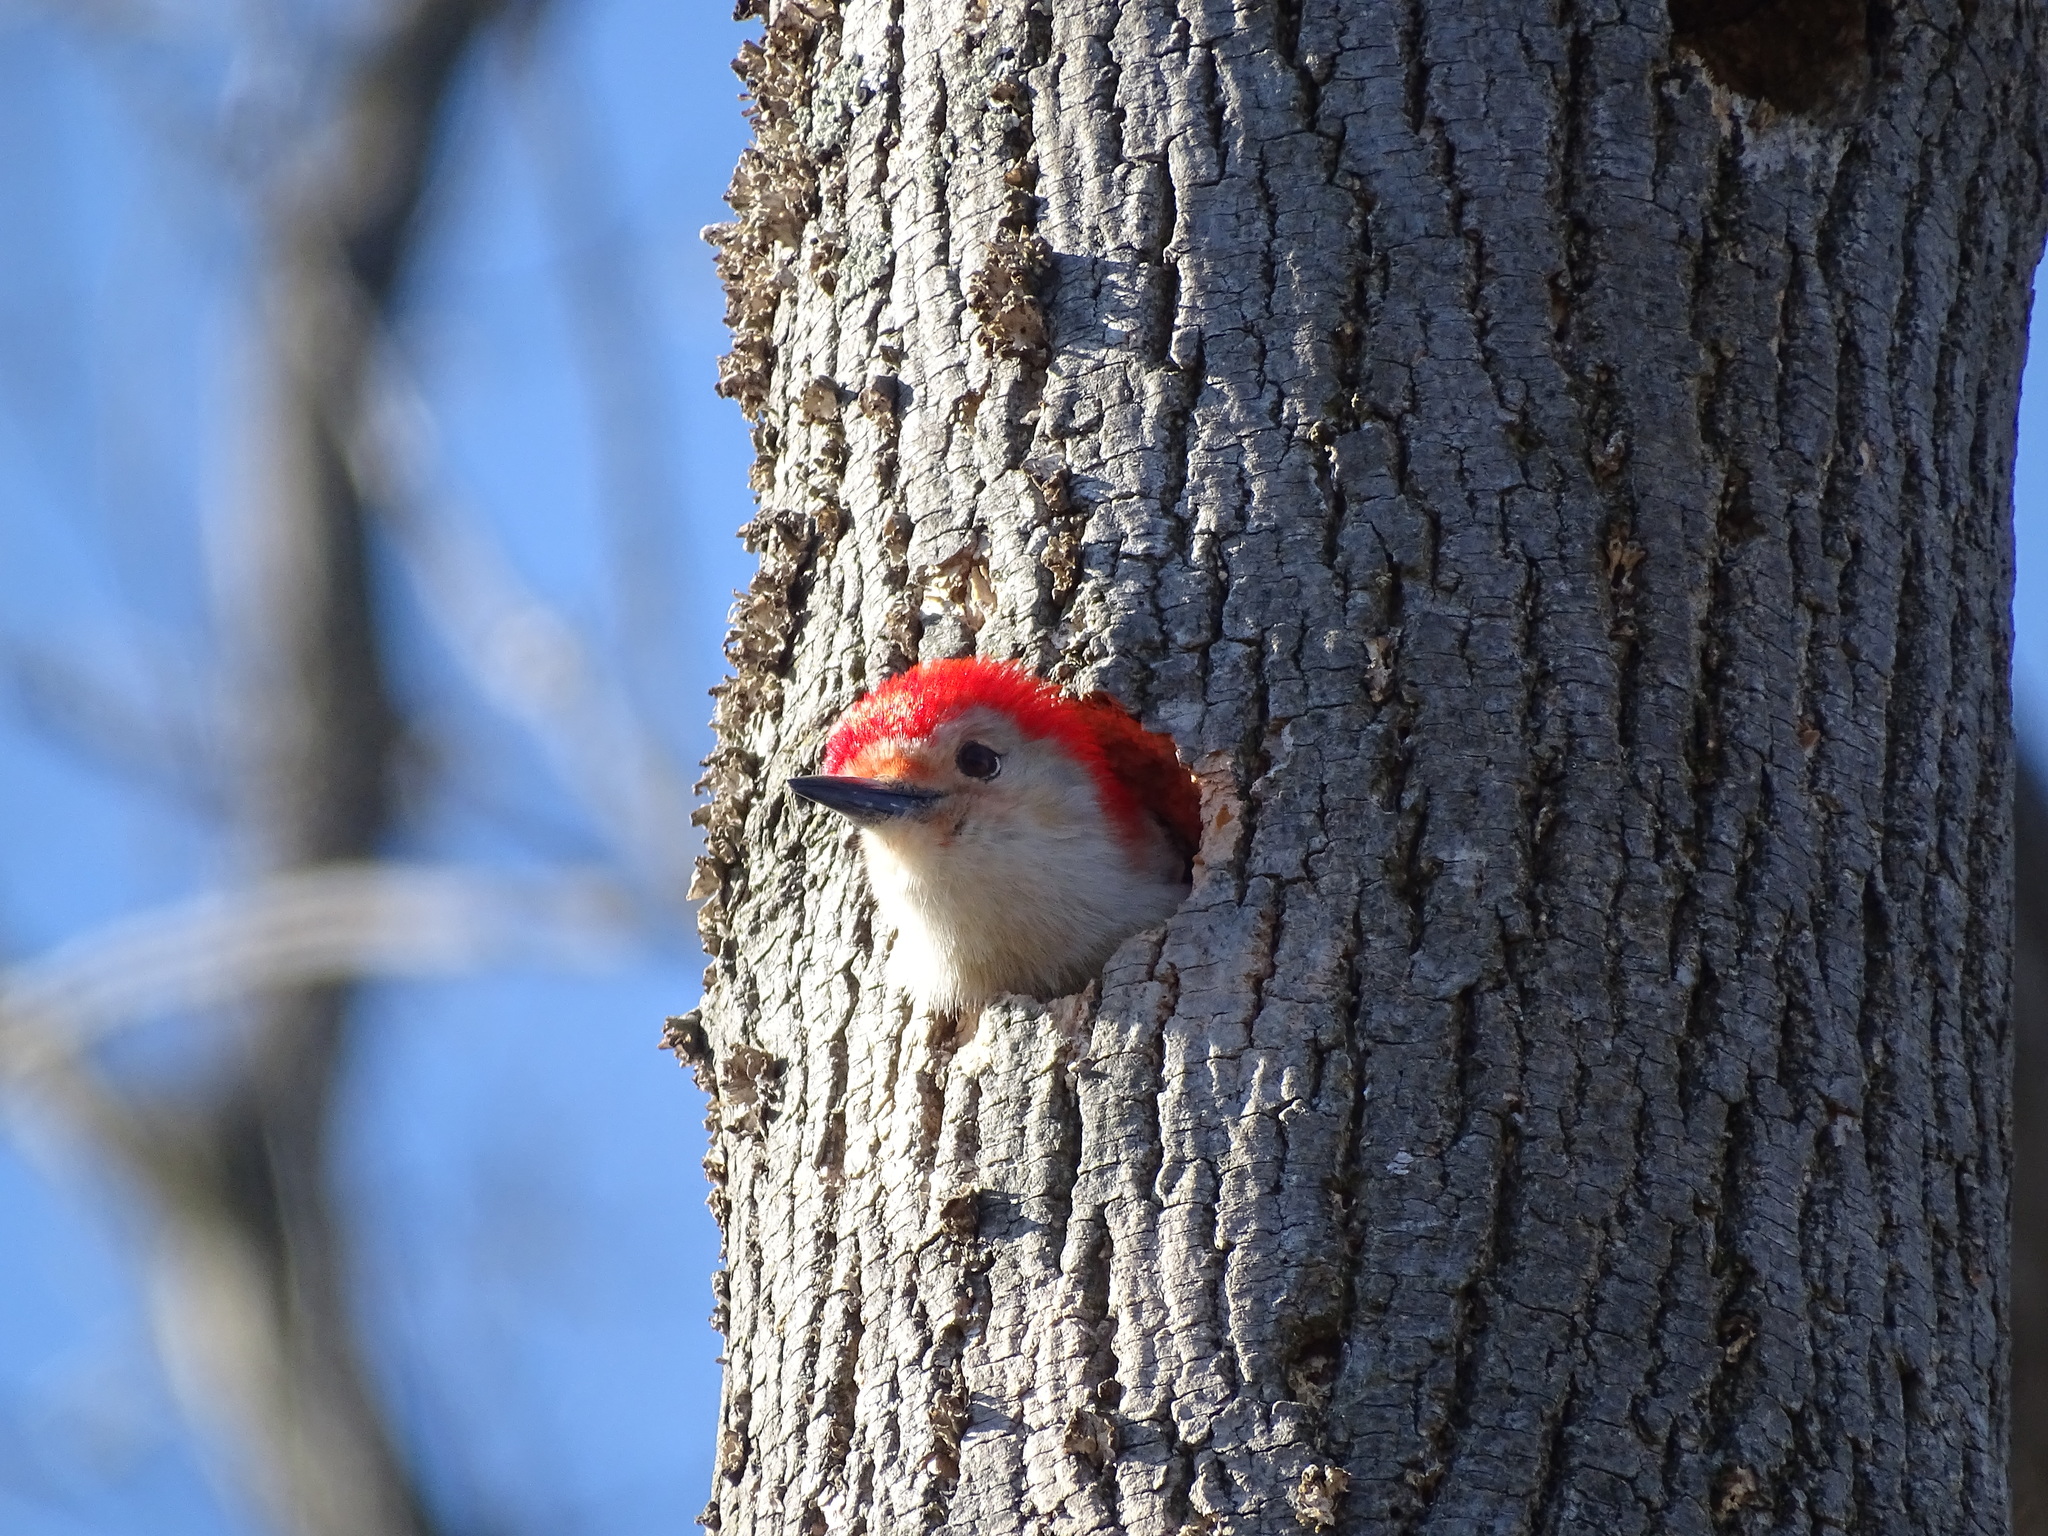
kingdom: Animalia
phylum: Chordata
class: Aves
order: Piciformes
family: Picidae
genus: Melanerpes
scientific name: Melanerpes carolinus
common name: Red-bellied woodpecker
